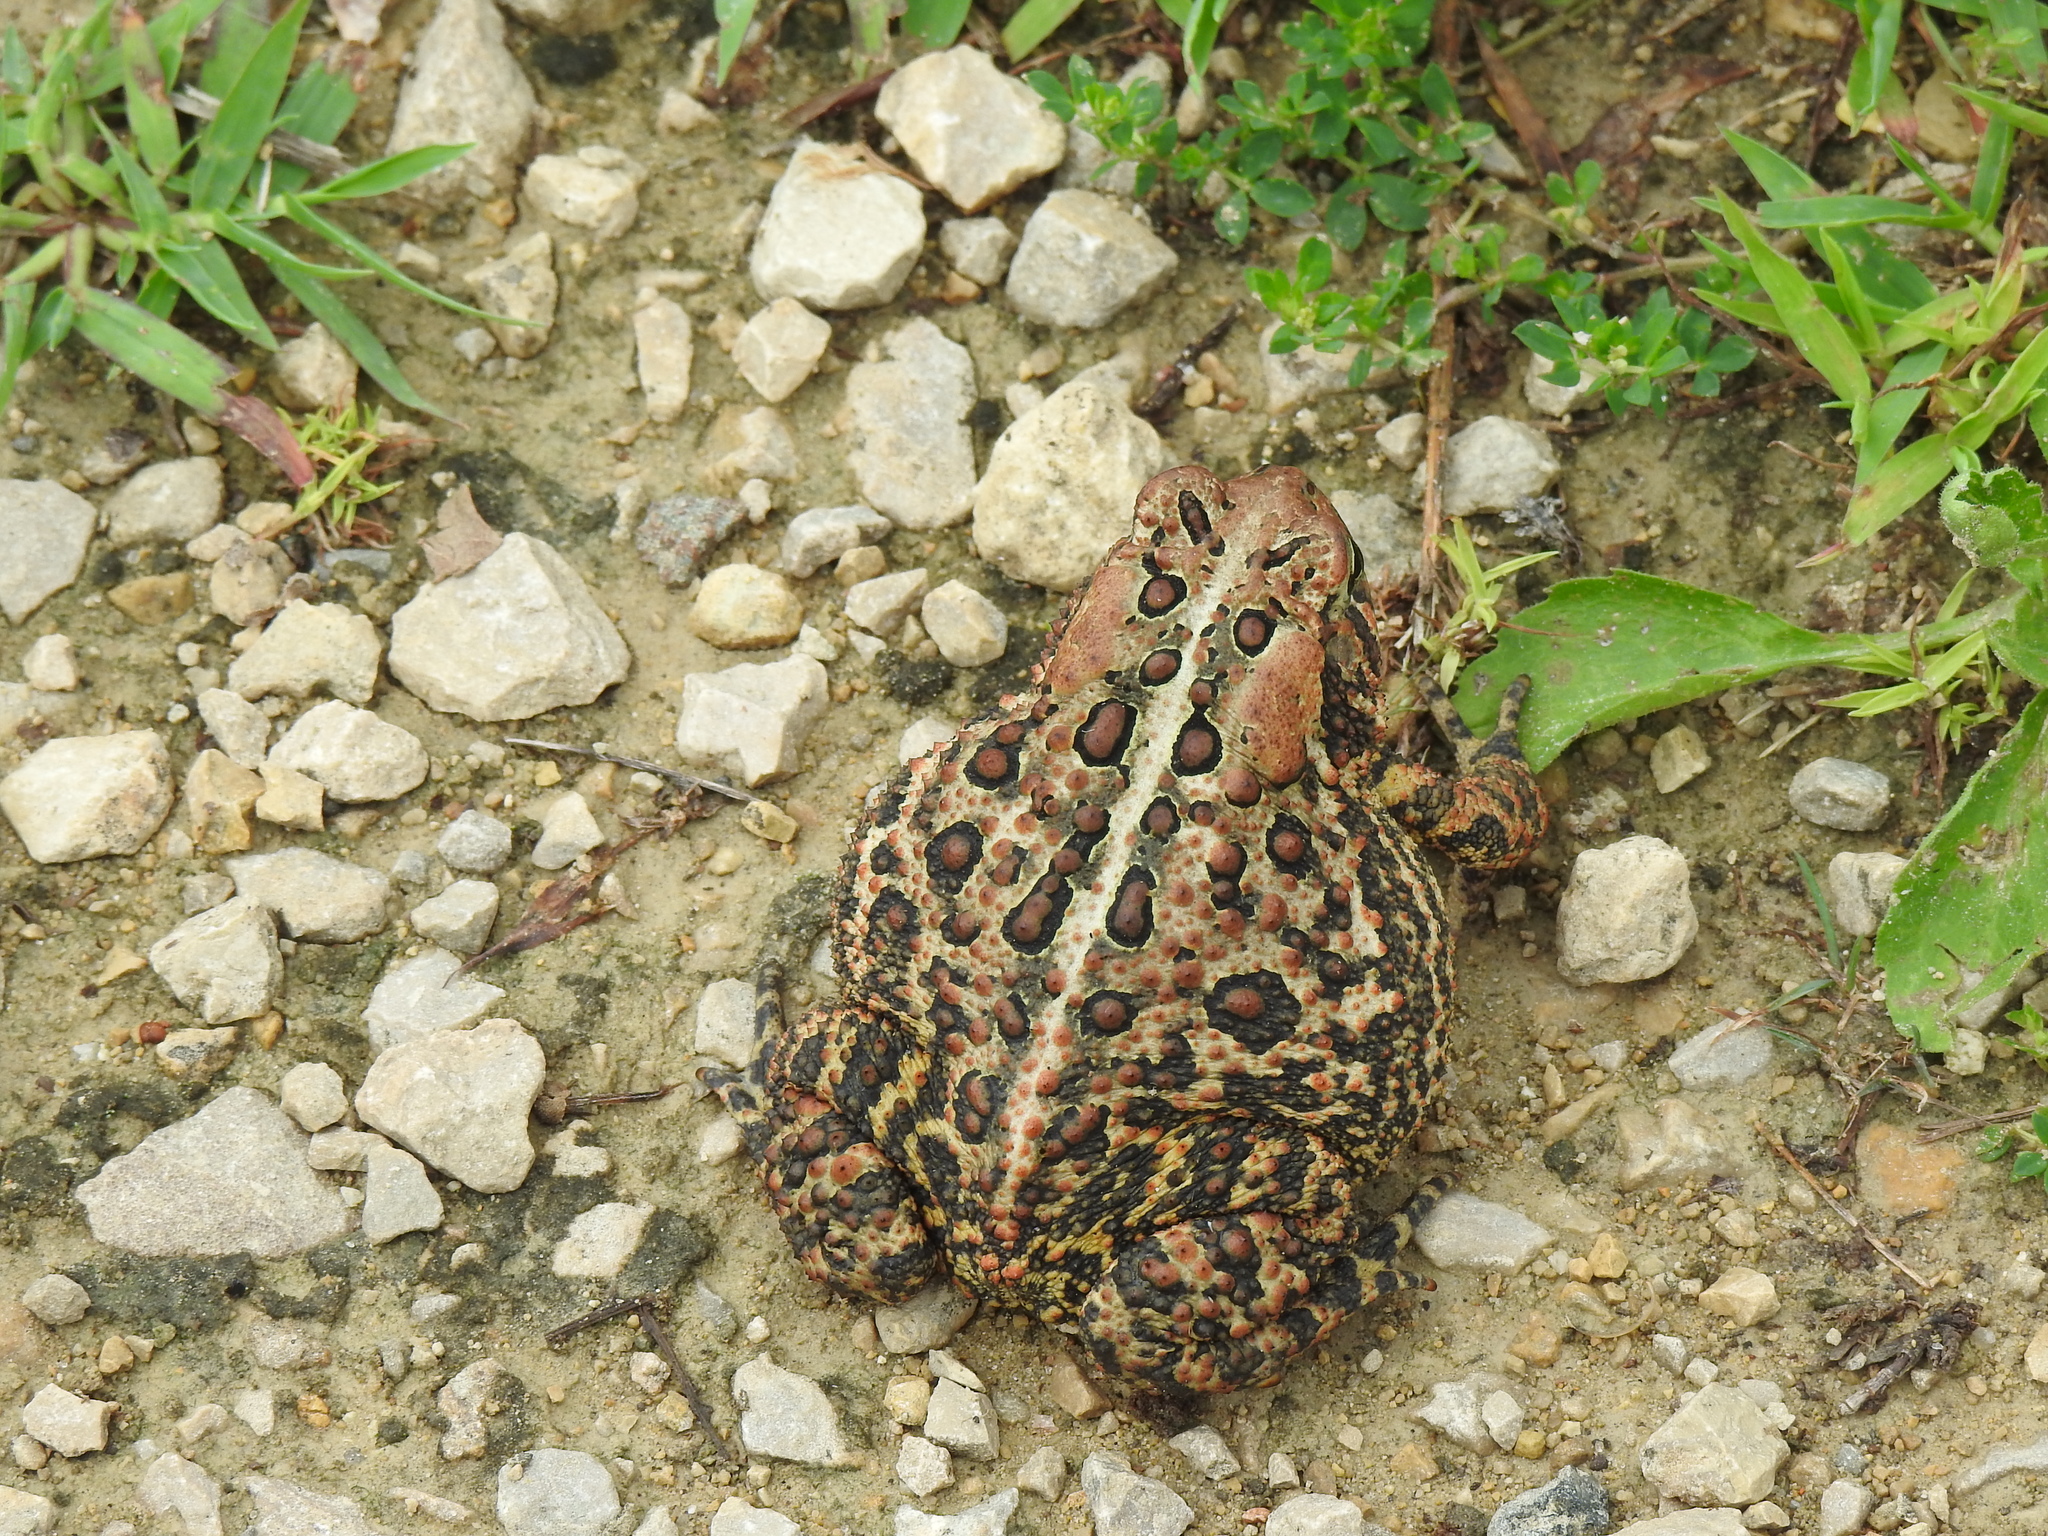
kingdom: Animalia
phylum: Chordata
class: Amphibia
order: Anura
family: Bufonidae
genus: Anaxyrus
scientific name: Anaxyrus americanus
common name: American toad
